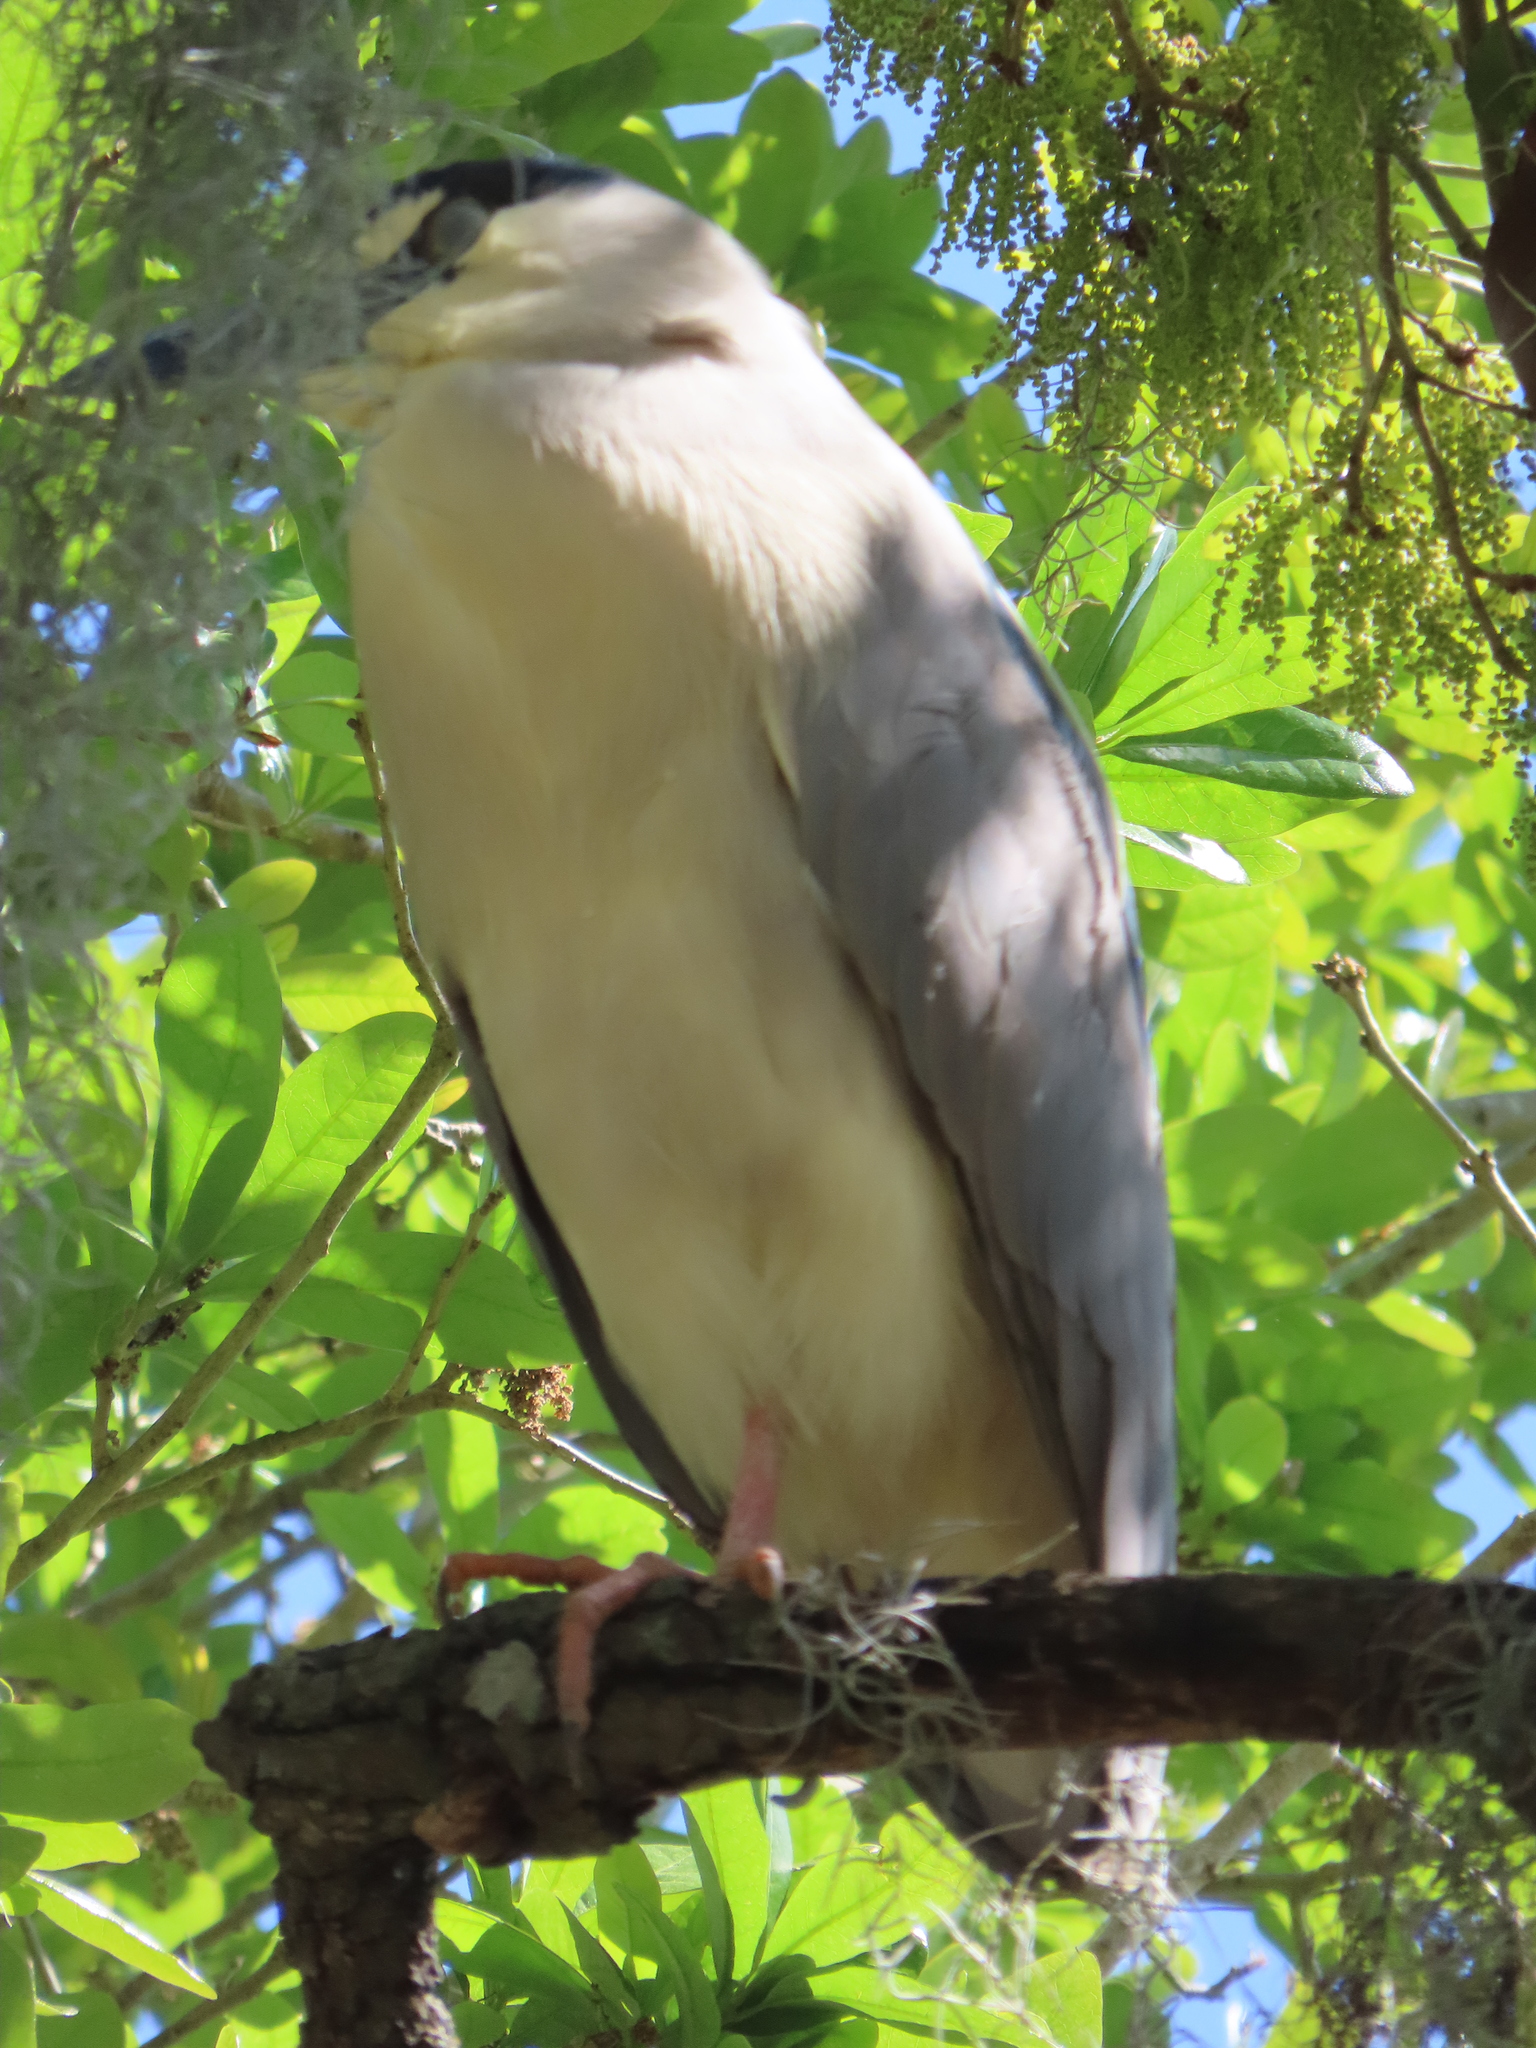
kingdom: Animalia
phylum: Chordata
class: Aves
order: Pelecaniformes
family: Ardeidae
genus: Nycticorax
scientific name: Nycticorax nycticorax
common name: Black-crowned night heron
